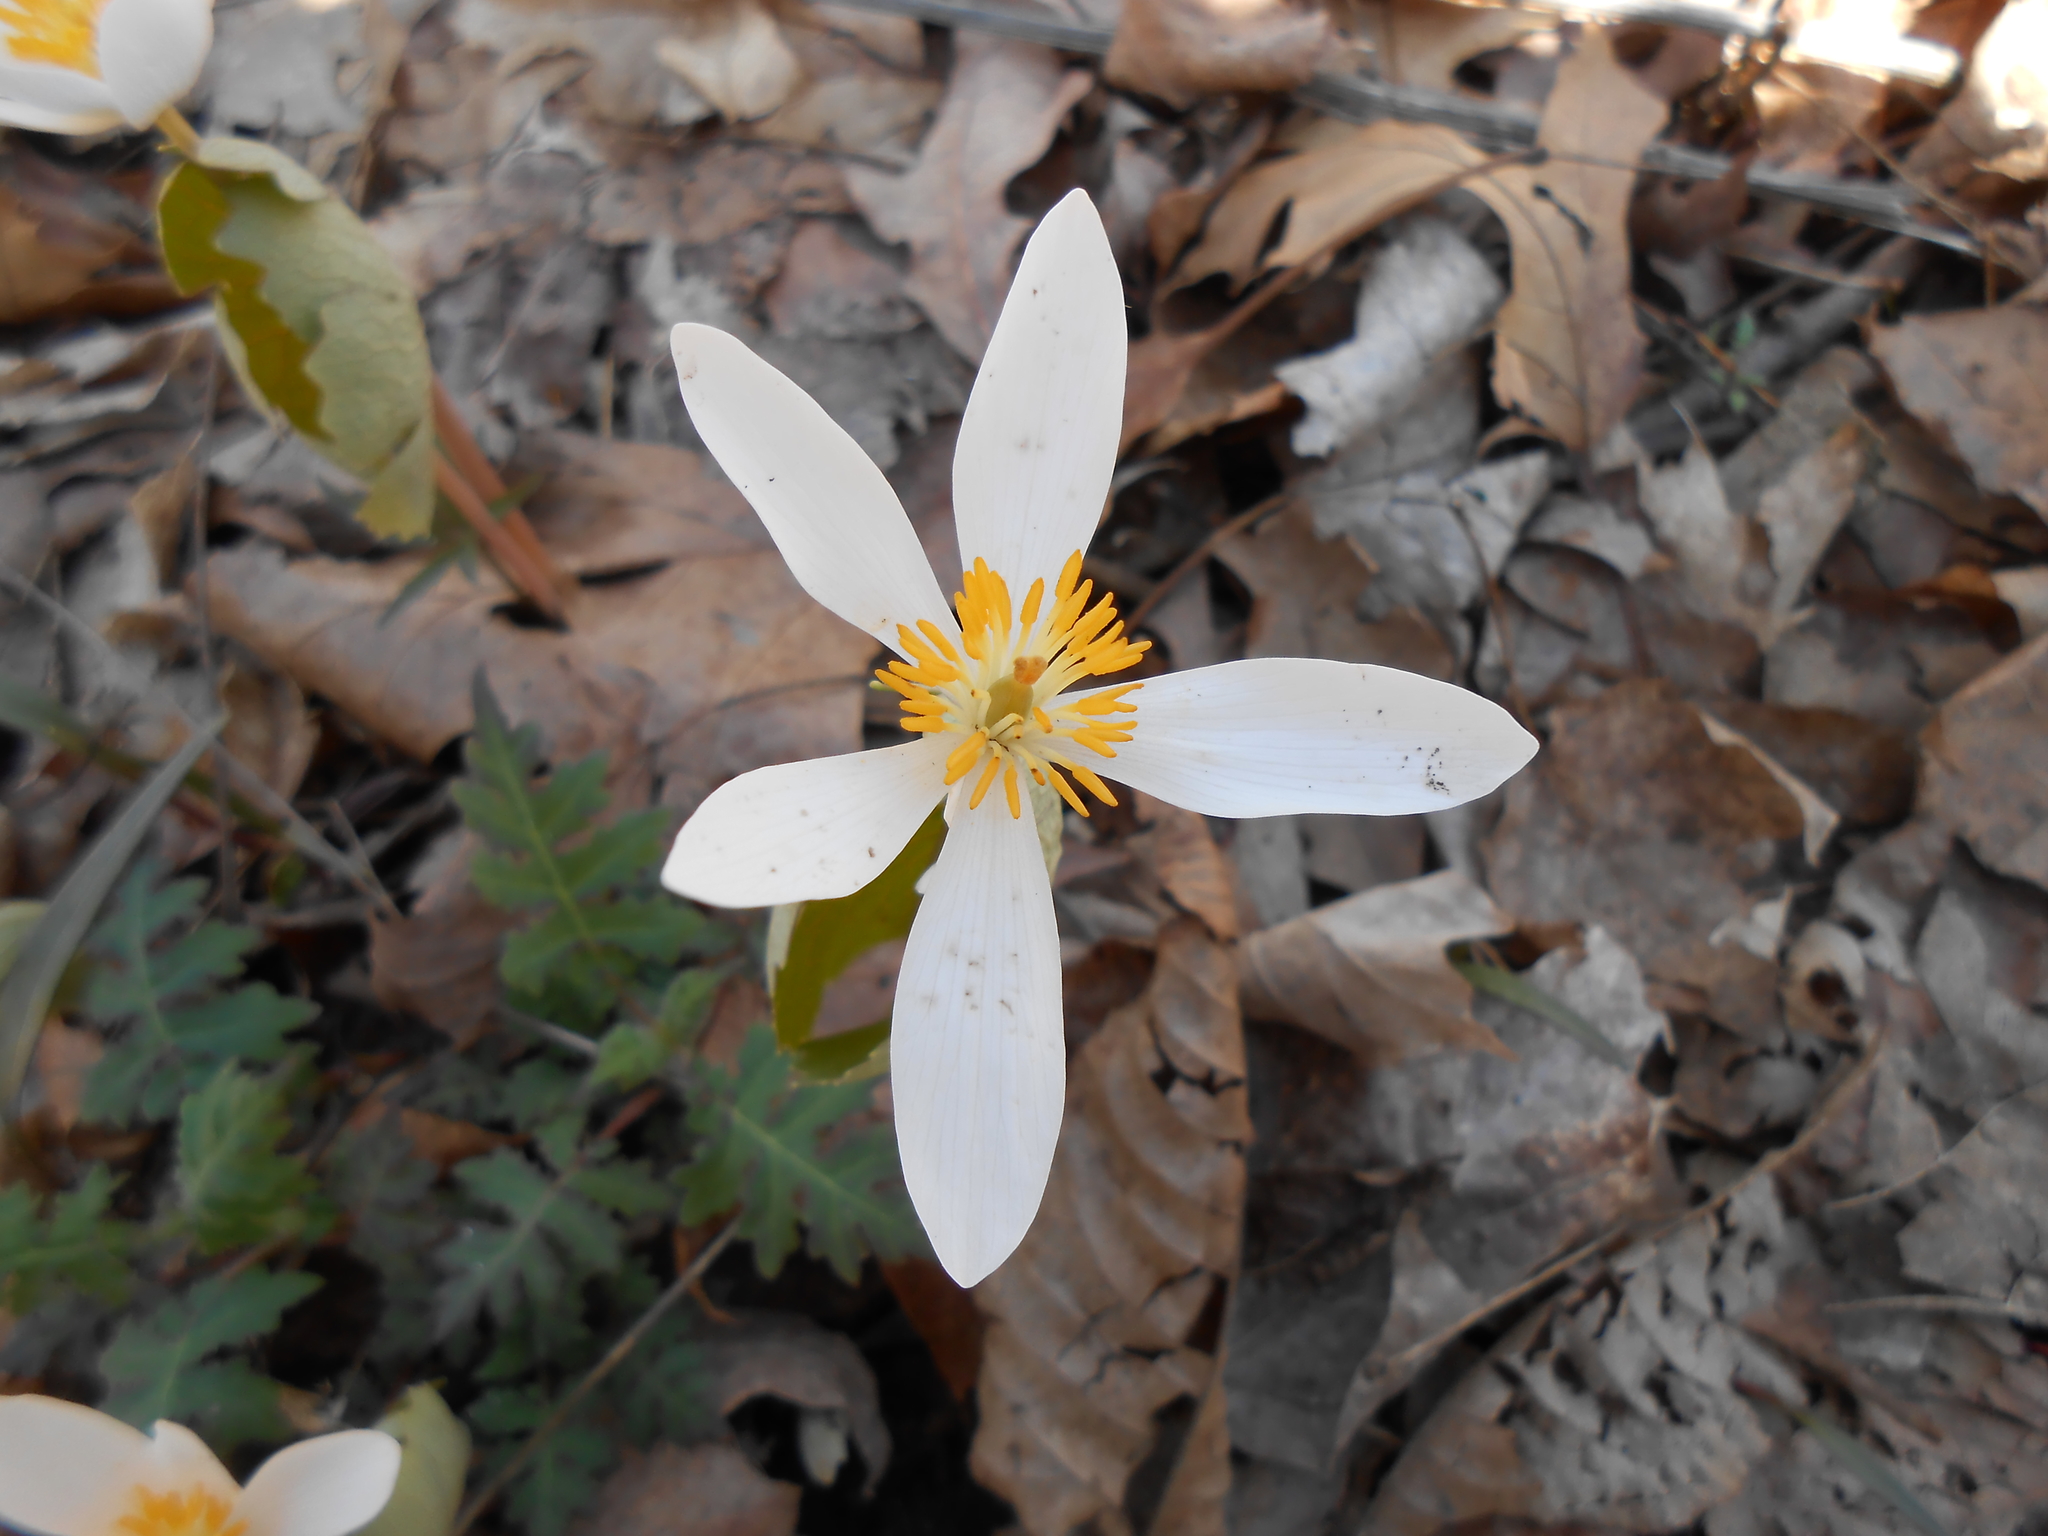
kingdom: Plantae
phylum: Tracheophyta
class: Magnoliopsida
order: Ranunculales
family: Papaveraceae
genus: Sanguinaria
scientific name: Sanguinaria canadensis
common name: Bloodroot
